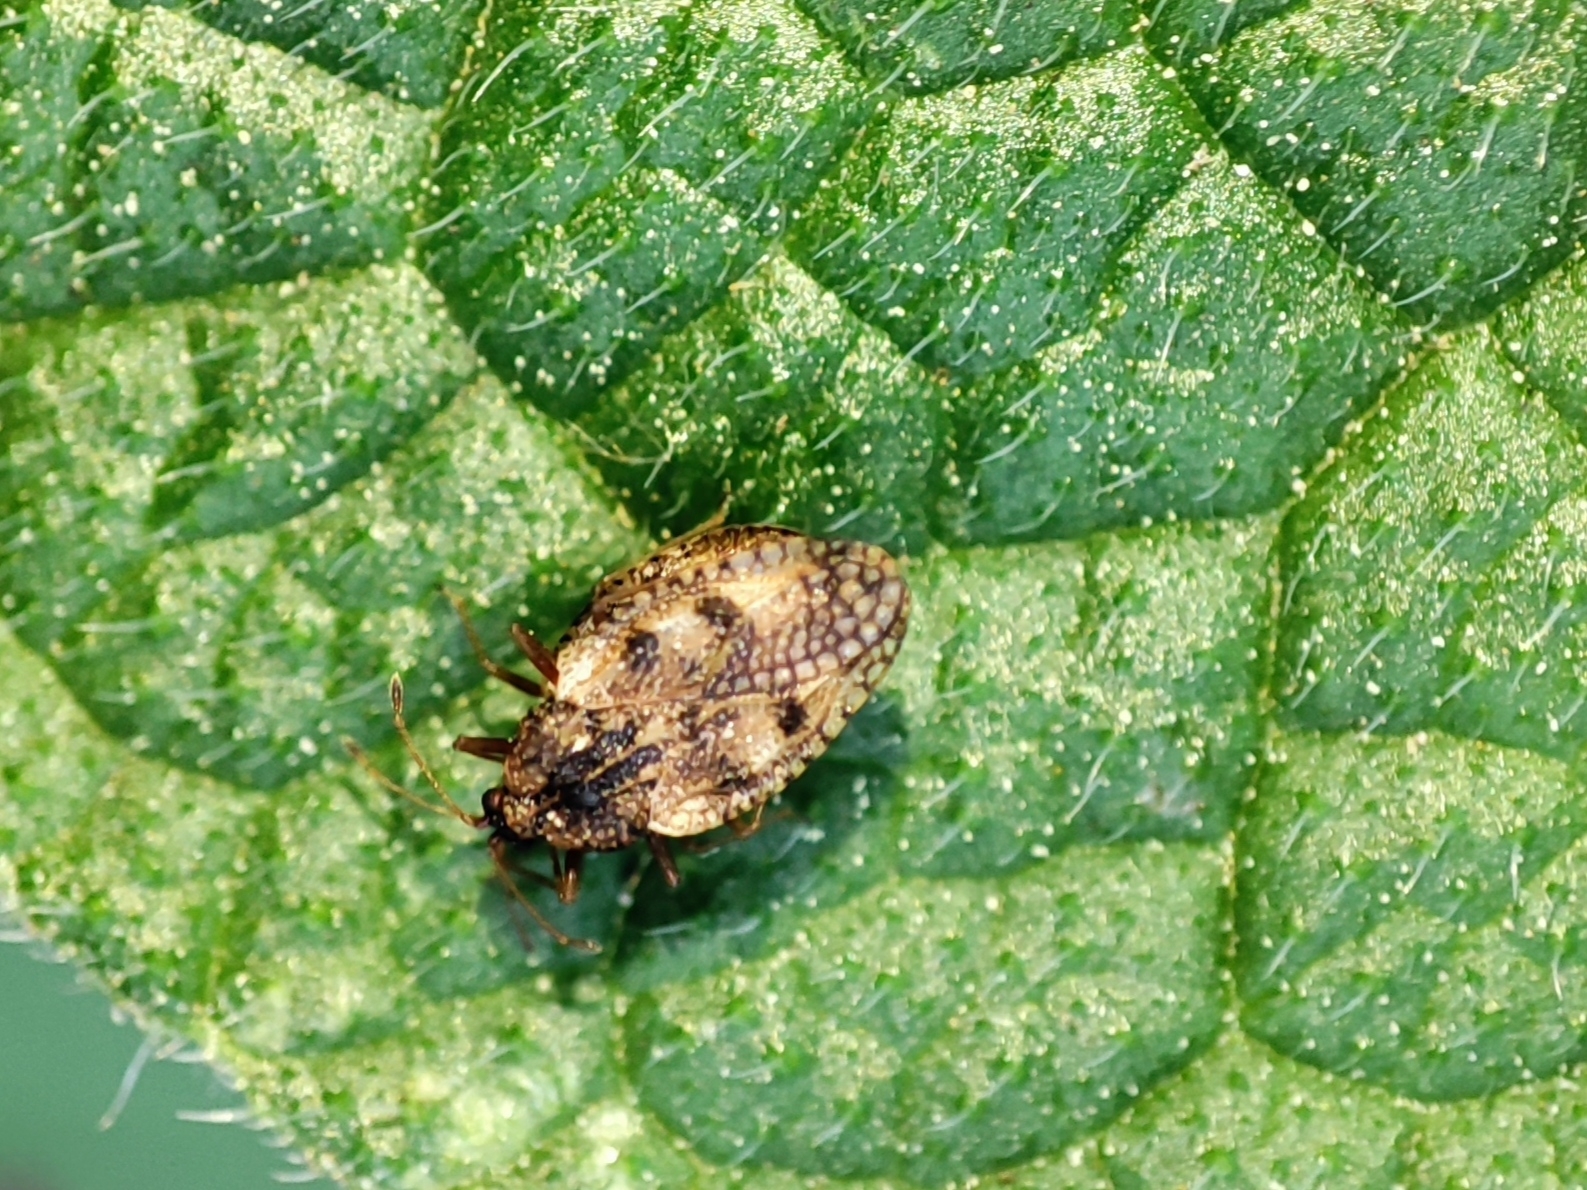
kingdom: Animalia
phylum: Arthropoda
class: Insecta
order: Hemiptera
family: Tingidae
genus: Dictyla
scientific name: Dictyla humuli
